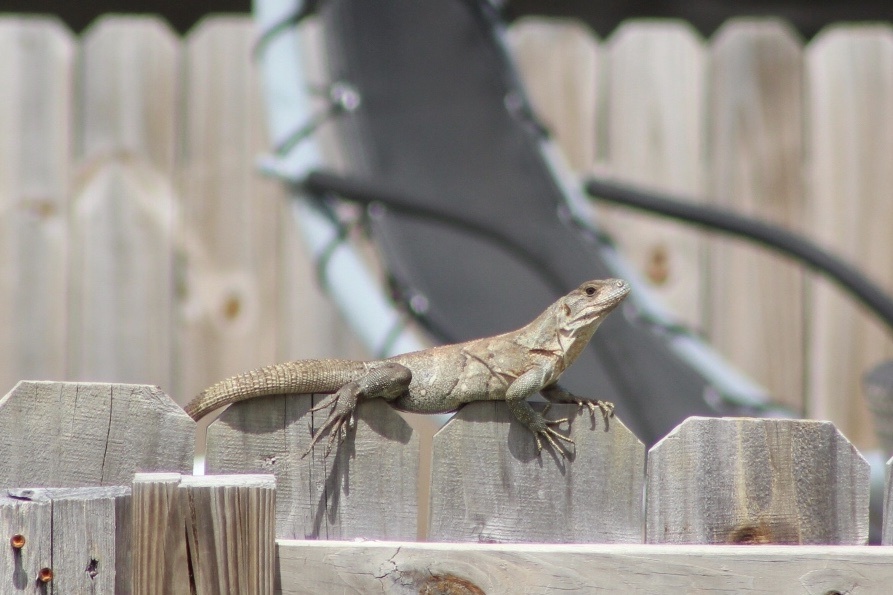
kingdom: Animalia
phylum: Chordata
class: Squamata
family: Iguanidae
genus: Ctenosaura
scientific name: Ctenosaura similis
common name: Black spiny-tailed iguana
